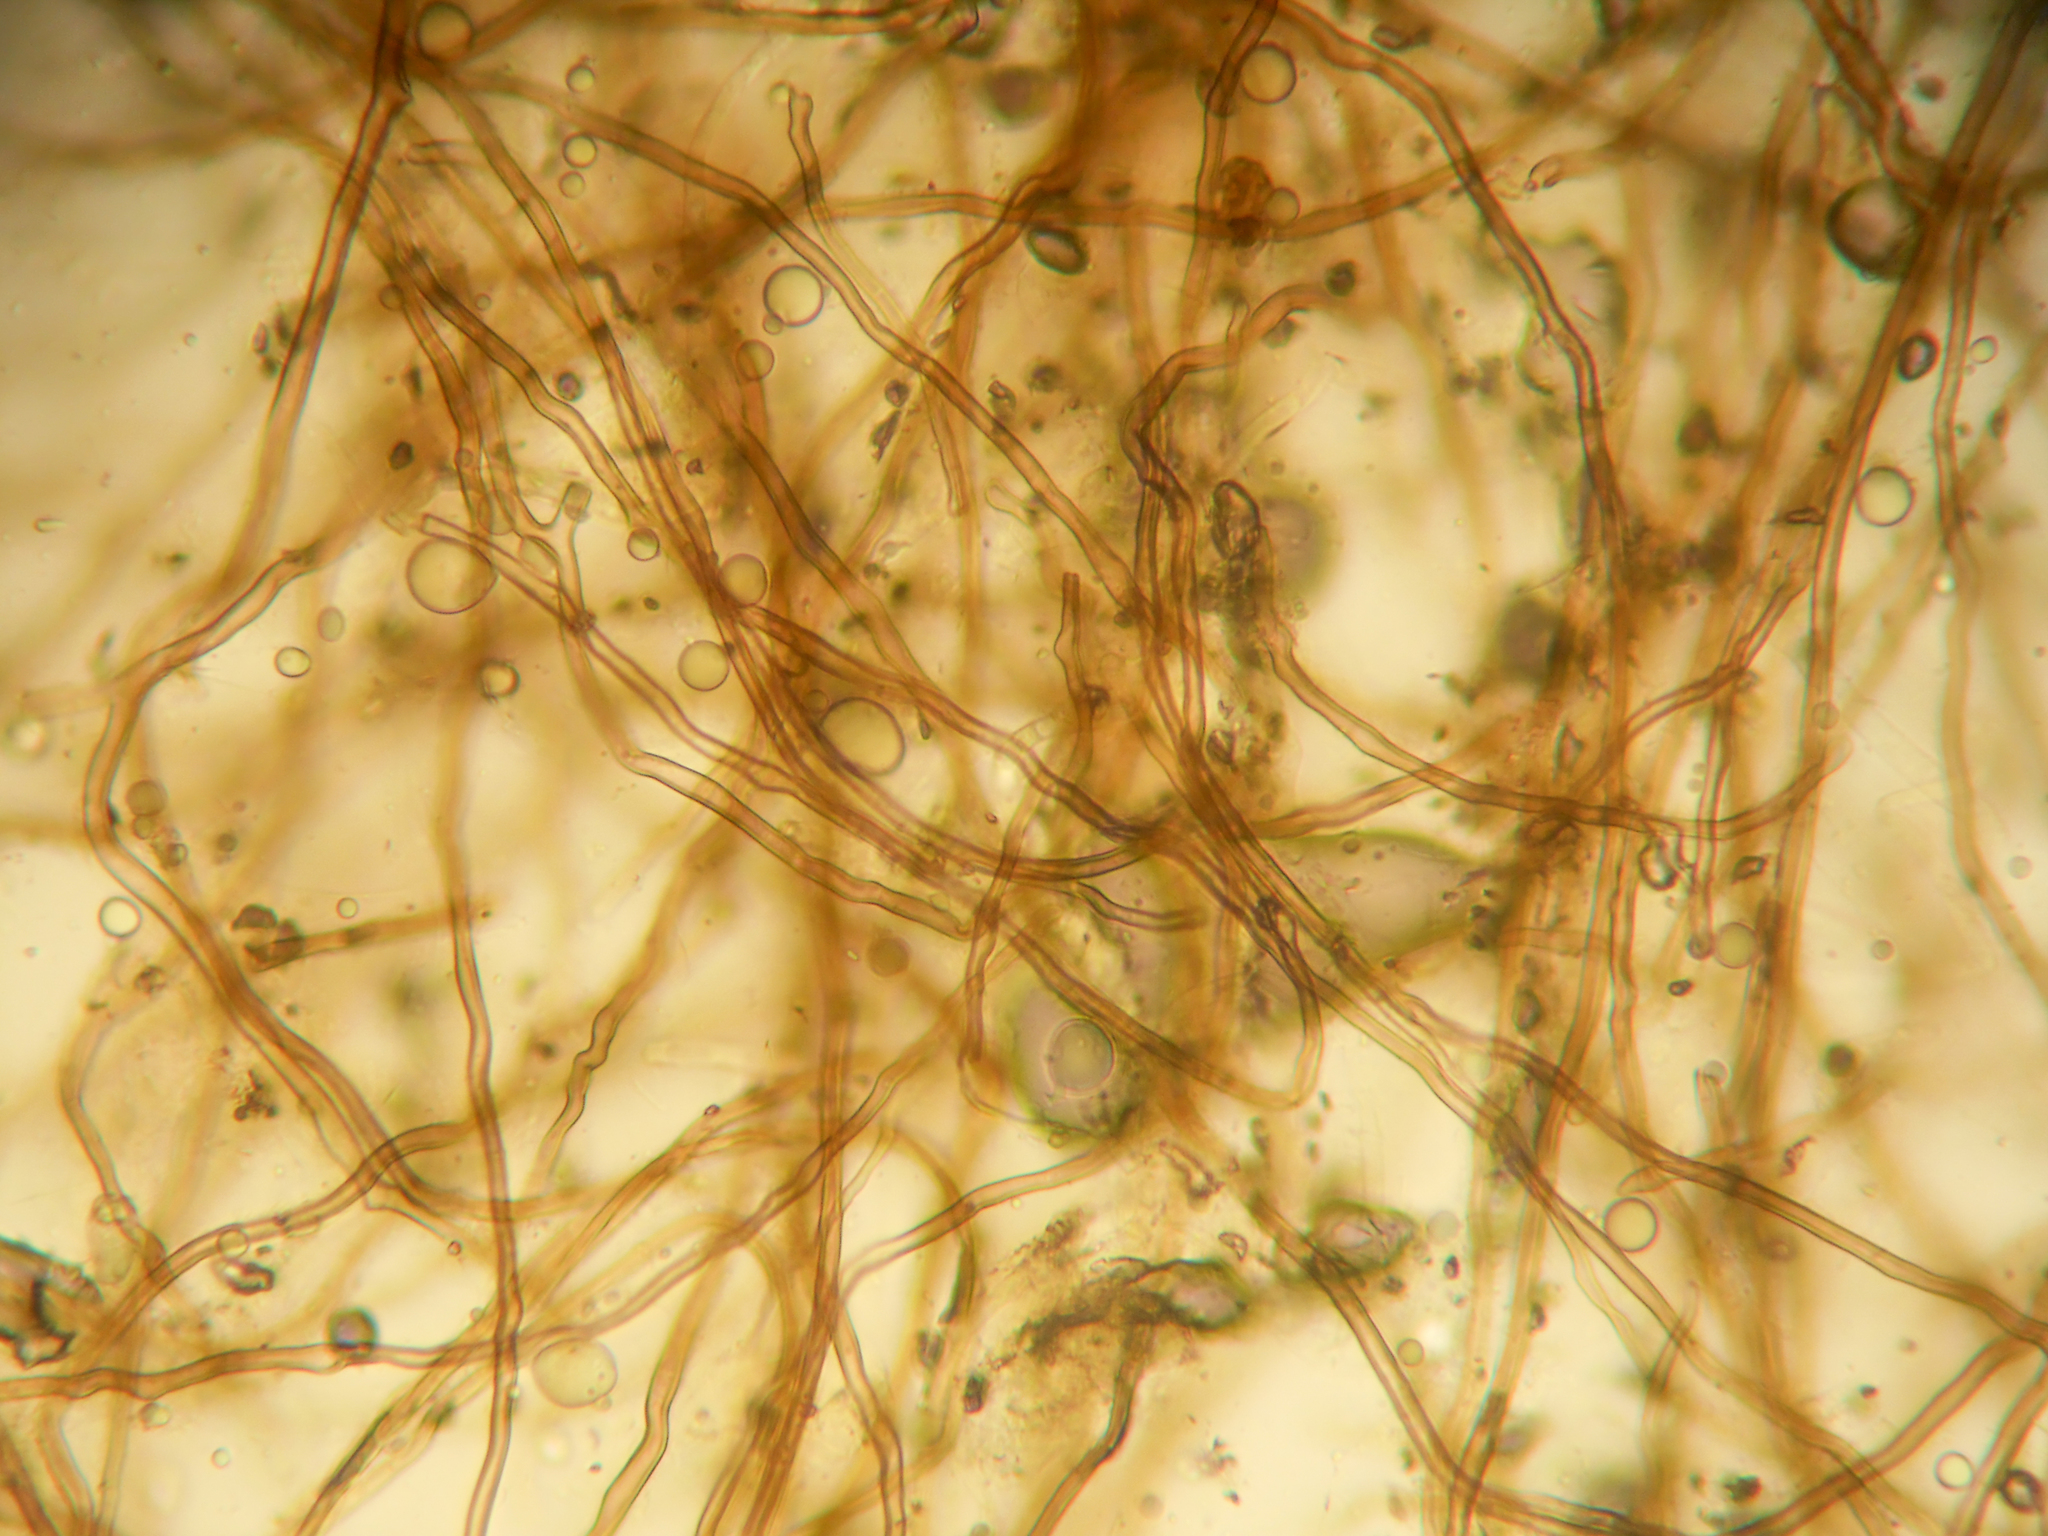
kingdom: Fungi
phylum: Basidiomycota
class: Agaricomycetes
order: Agaricales
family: Lycoperdaceae
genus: Lycoperdon
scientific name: Lycoperdon pratense
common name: Meadow puffball
